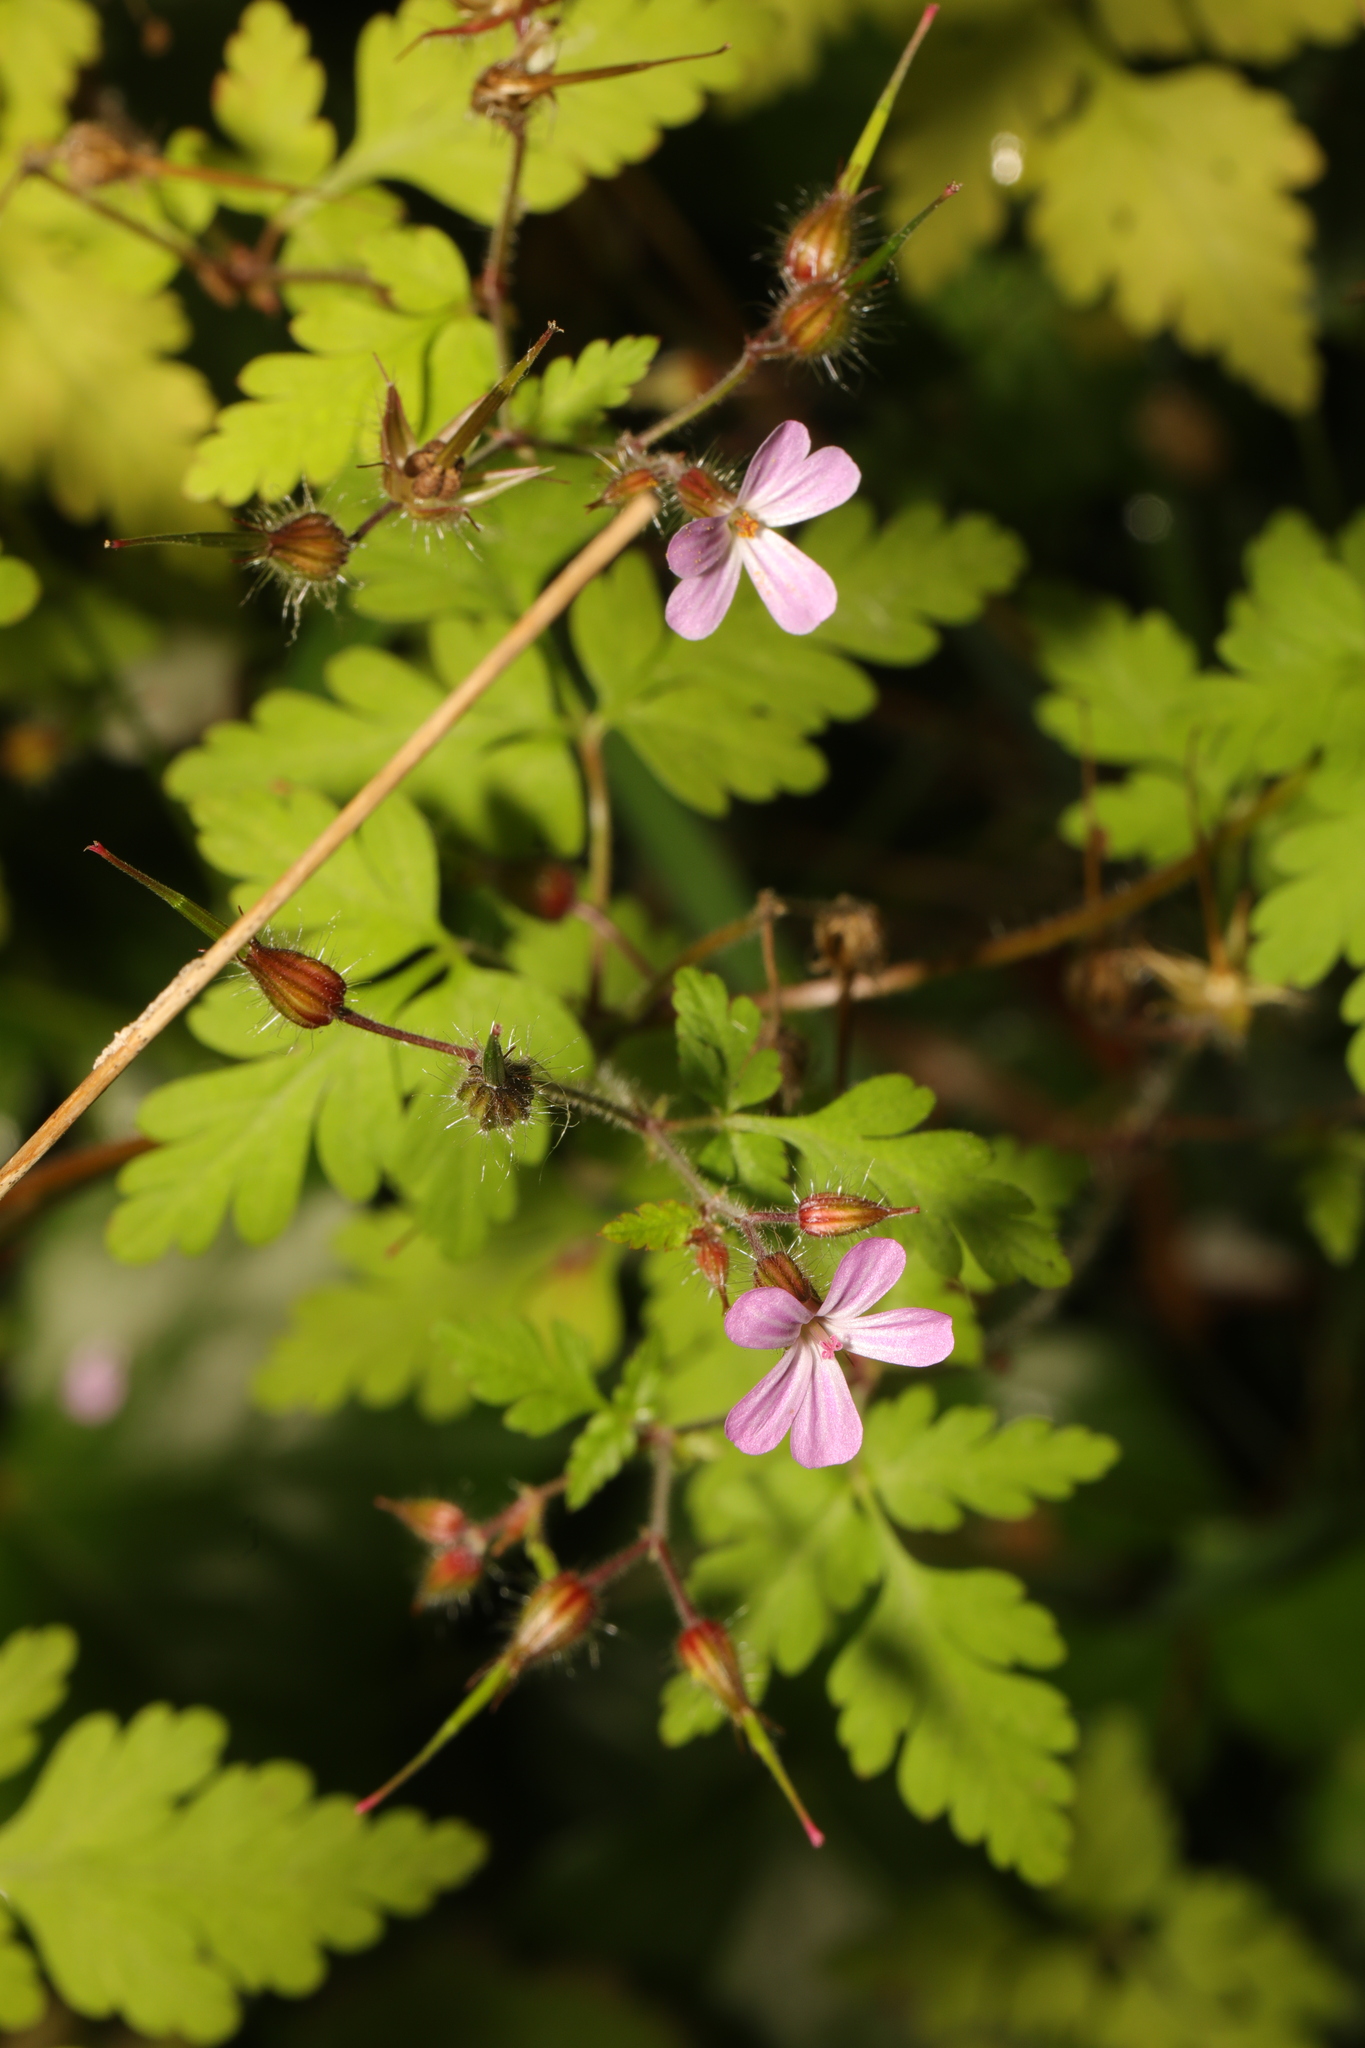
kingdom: Plantae
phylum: Tracheophyta
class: Magnoliopsida
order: Geraniales
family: Geraniaceae
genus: Geranium
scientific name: Geranium robertianum
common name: Herb-robert
